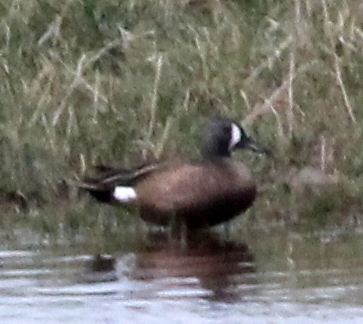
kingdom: Animalia
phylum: Chordata
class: Aves
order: Anseriformes
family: Anatidae
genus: Spatula
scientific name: Spatula discors
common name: Blue-winged teal
